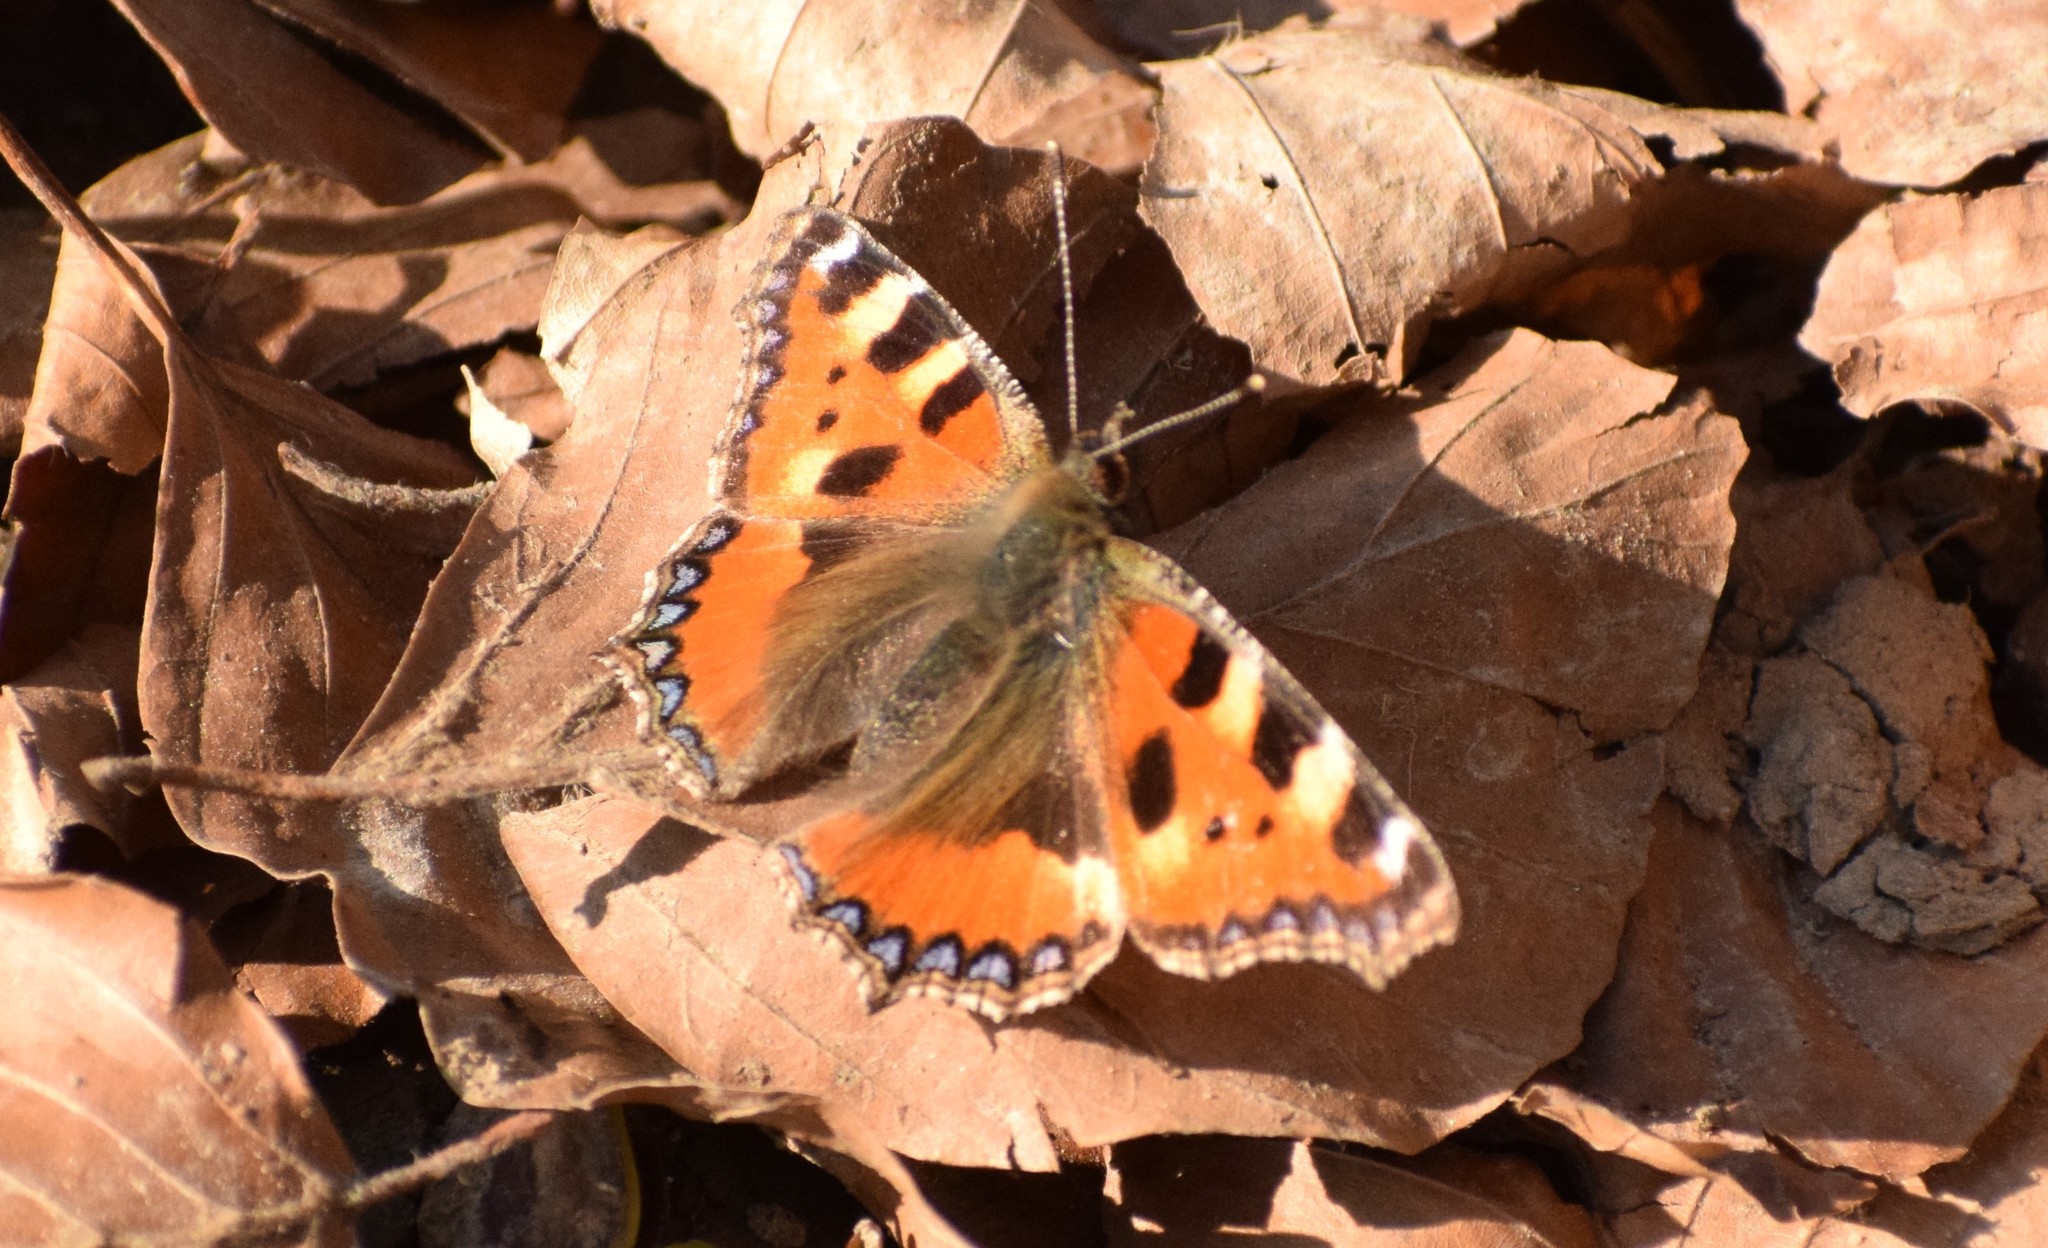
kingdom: Animalia
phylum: Arthropoda
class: Insecta
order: Lepidoptera
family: Nymphalidae
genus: Aglais
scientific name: Aglais urticae
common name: Small tortoiseshell
